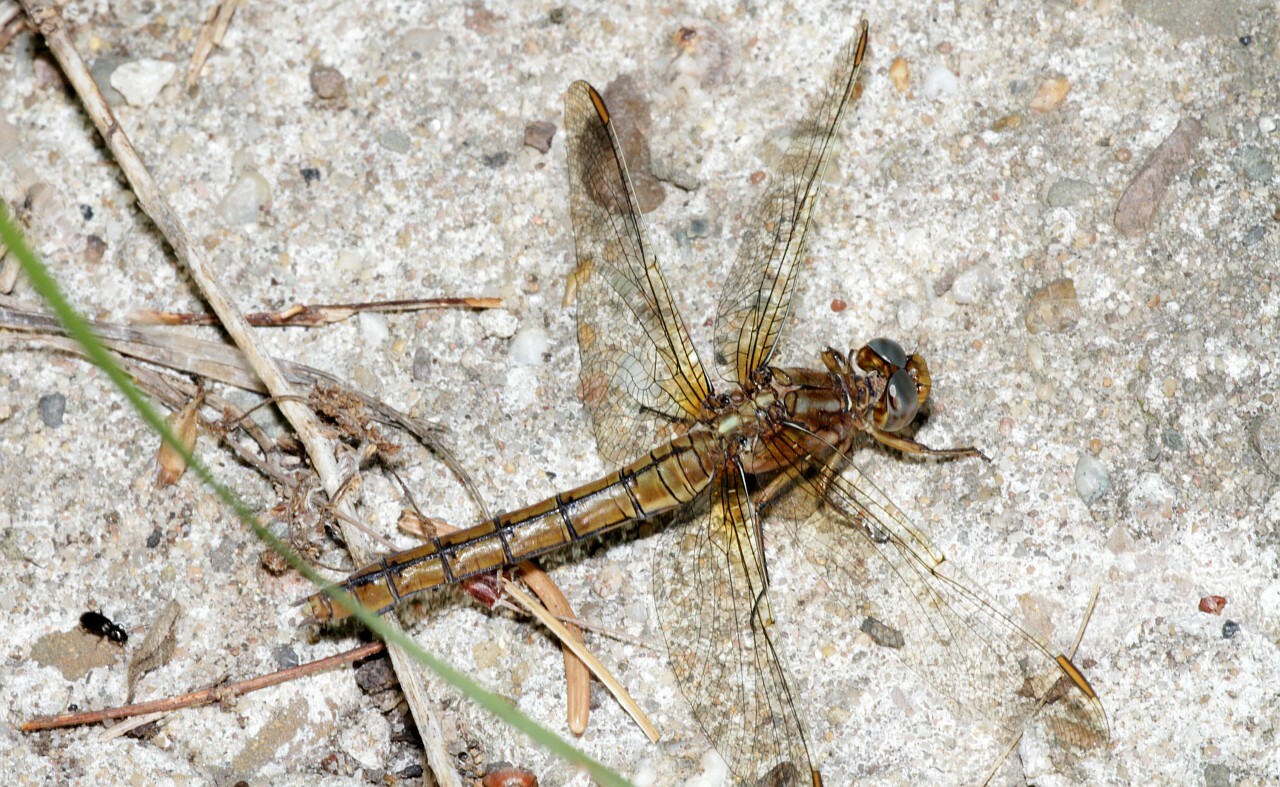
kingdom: Animalia
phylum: Arthropoda
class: Insecta
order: Odonata
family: Libellulidae
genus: Orthetrum
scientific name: Orthetrum coerulescens
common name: Keeled skimmer
